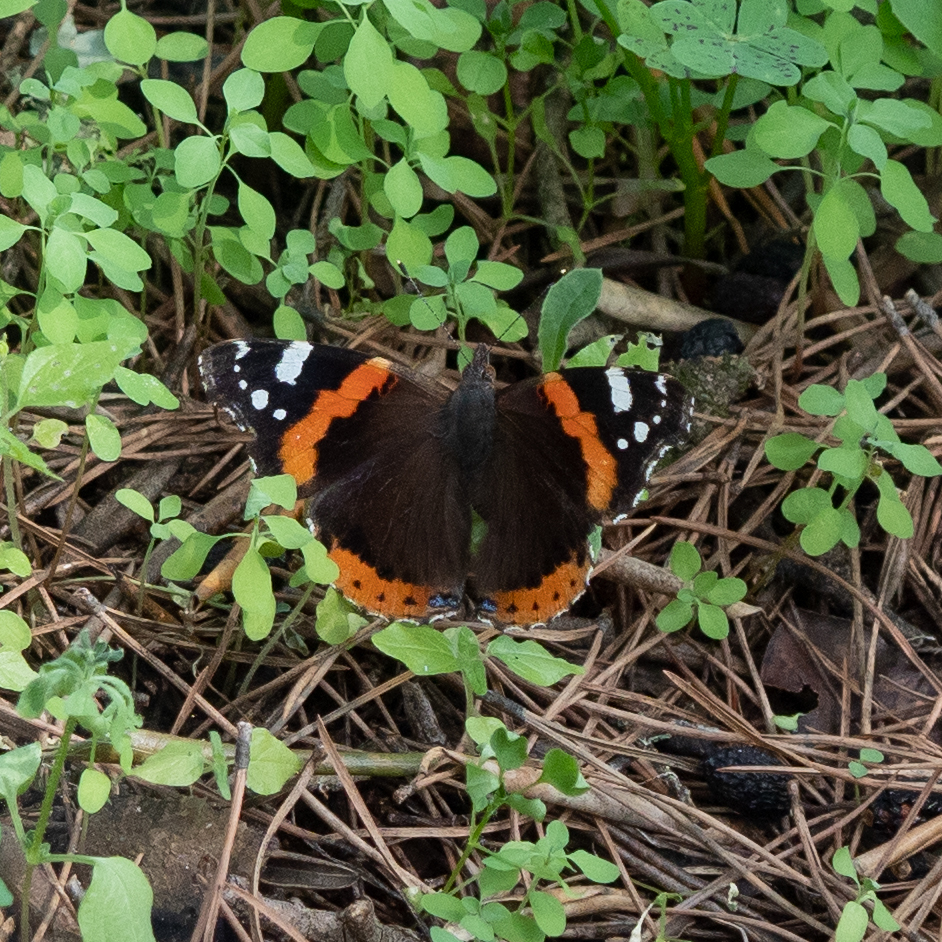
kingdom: Animalia
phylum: Arthropoda
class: Insecta
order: Lepidoptera
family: Nymphalidae
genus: Vanessa
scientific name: Vanessa atalanta
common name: Red admiral
